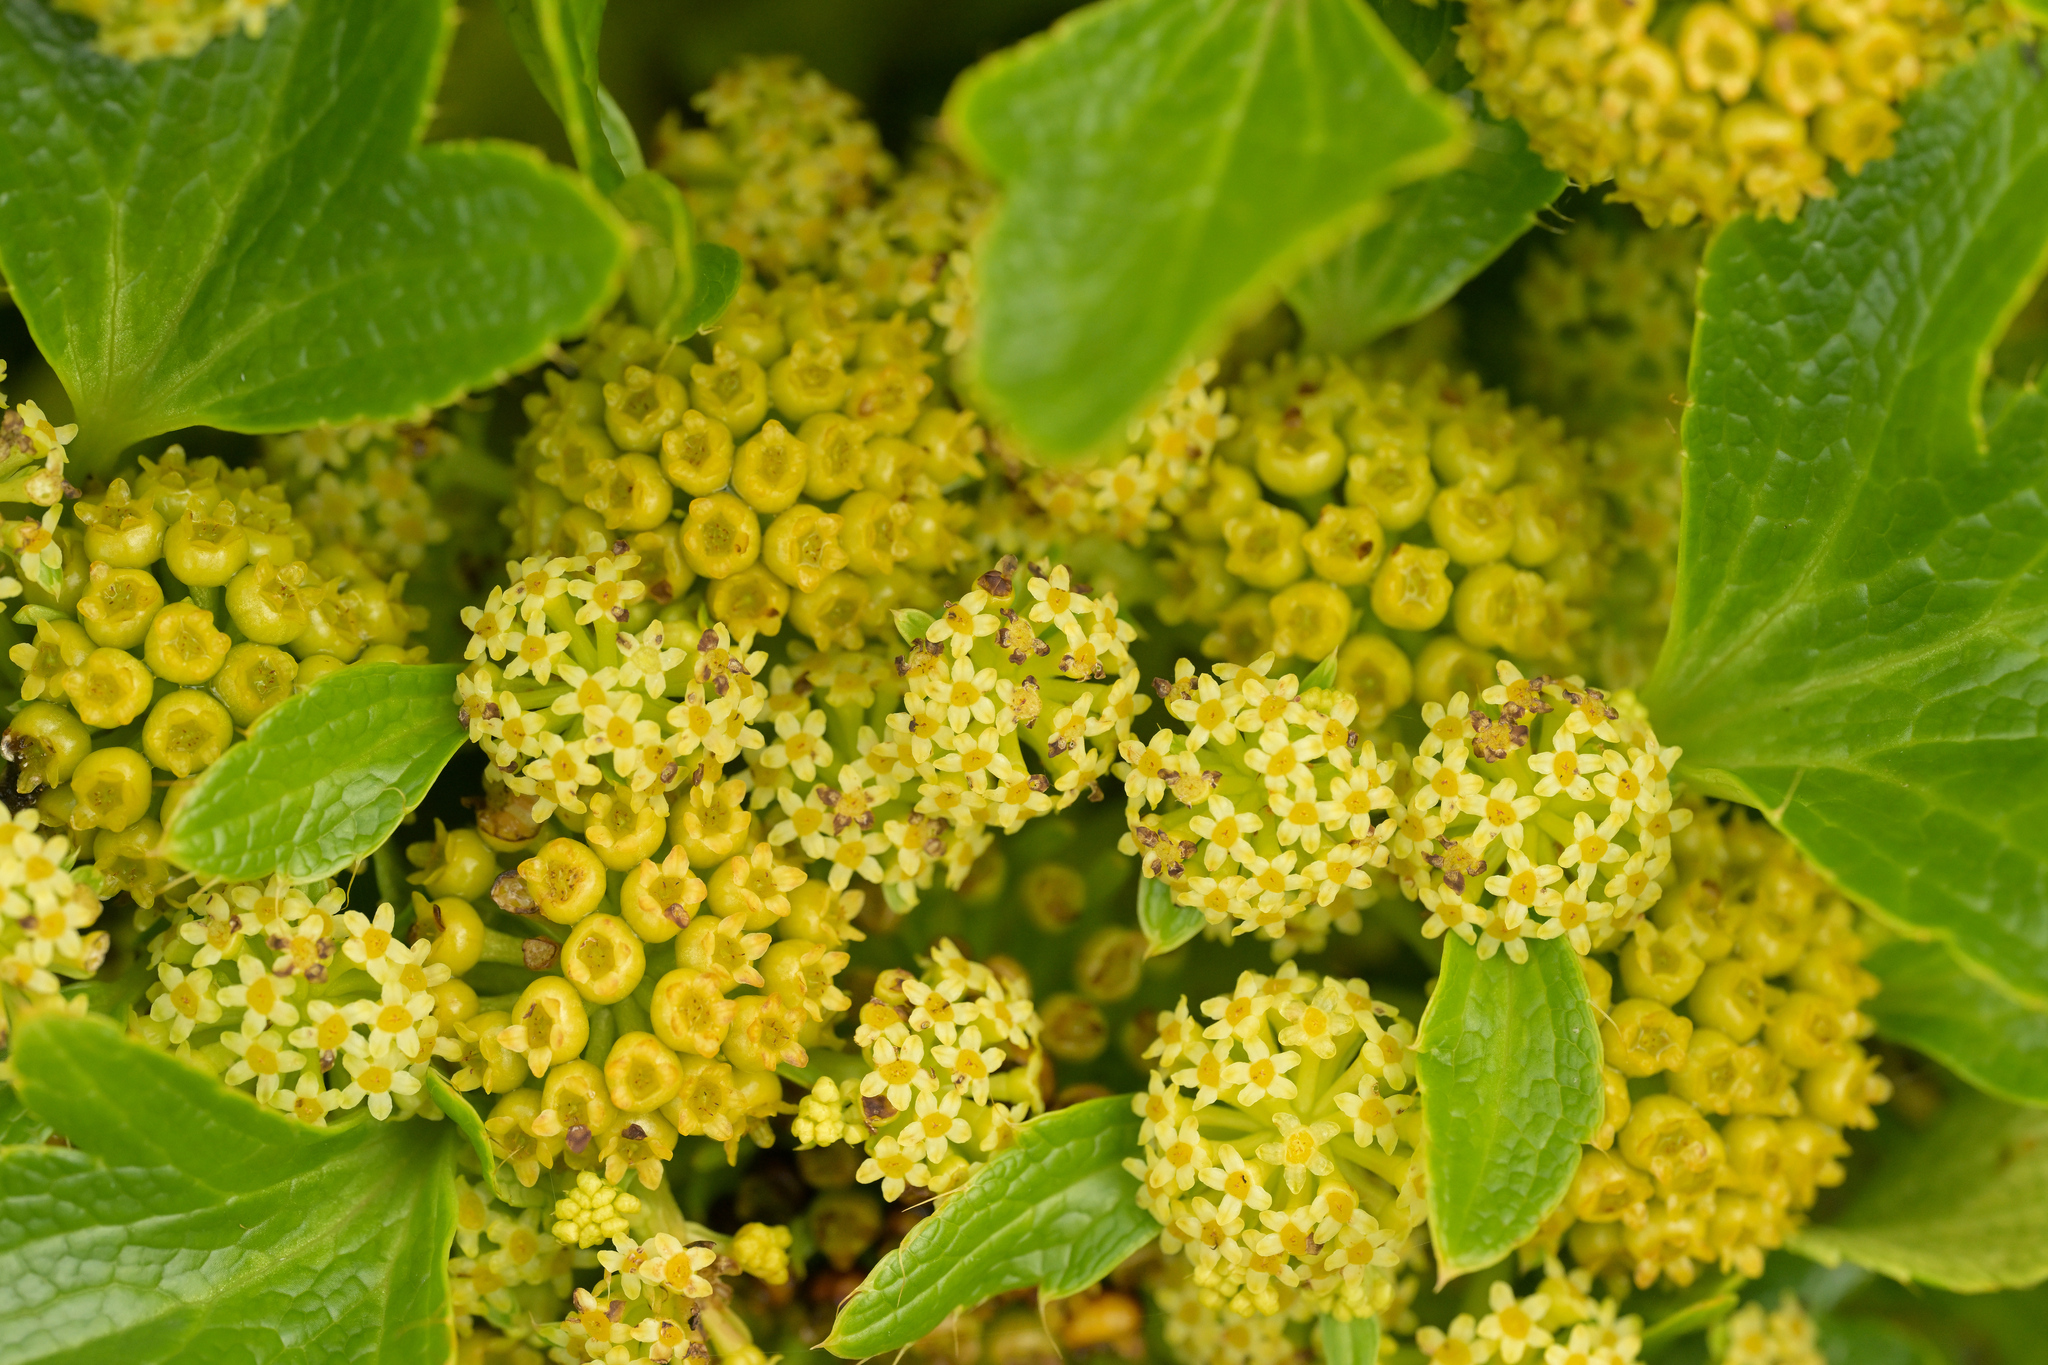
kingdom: Plantae
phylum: Tracheophyta
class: Magnoliopsida
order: Apiales
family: Apiaceae
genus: Azorella
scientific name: Azorella polaris
